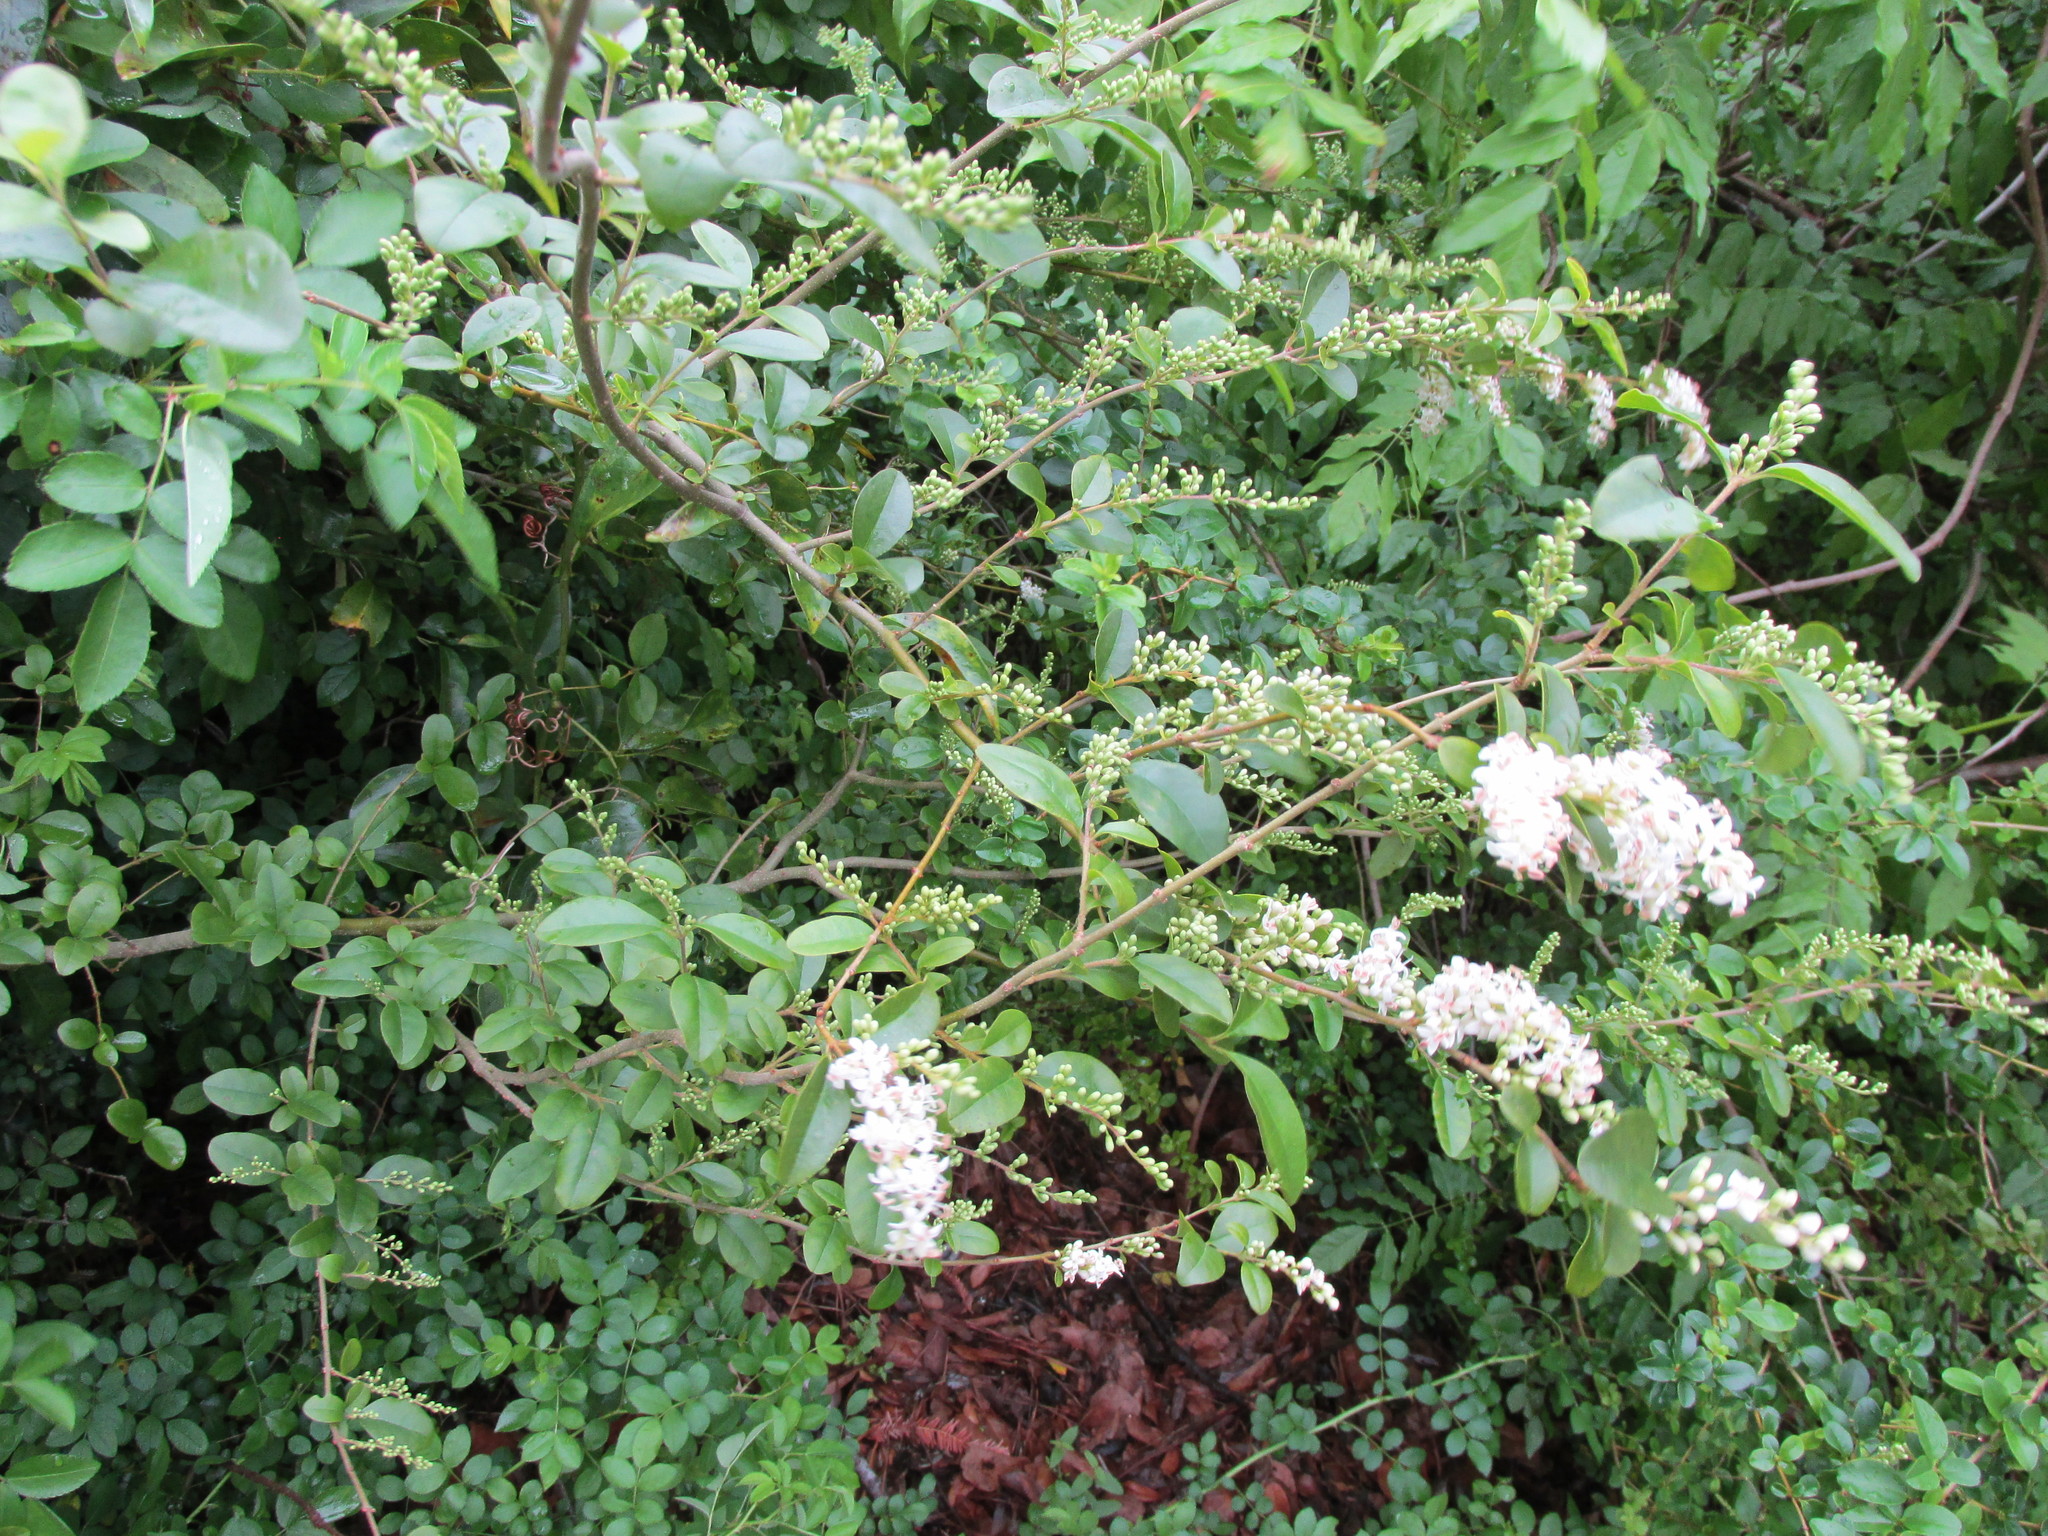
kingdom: Plantae
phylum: Tracheophyta
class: Magnoliopsida
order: Lamiales
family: Oleaceae
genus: Ligustrum
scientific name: Ligustrum sinense
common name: Chinese privet
